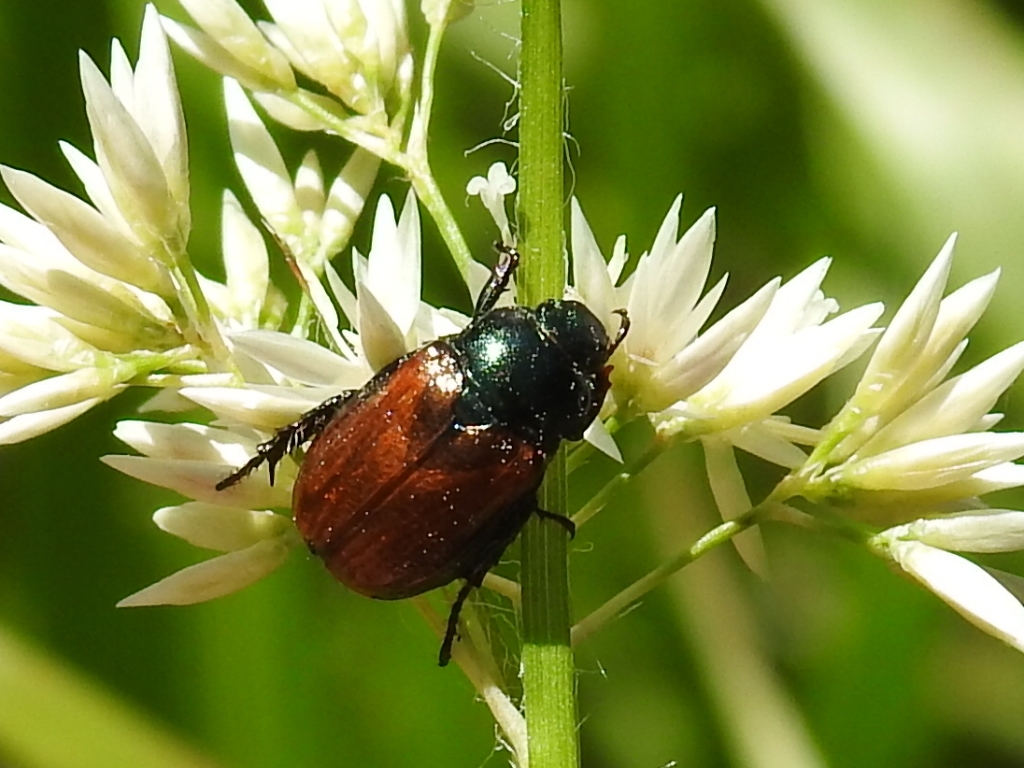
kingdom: Animalia
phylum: Arthropoda
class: Insecta
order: Coleoptera
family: Scarabaeidae
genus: Phyllopertha
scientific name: Phyllopertha horticola
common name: Garden chafer
